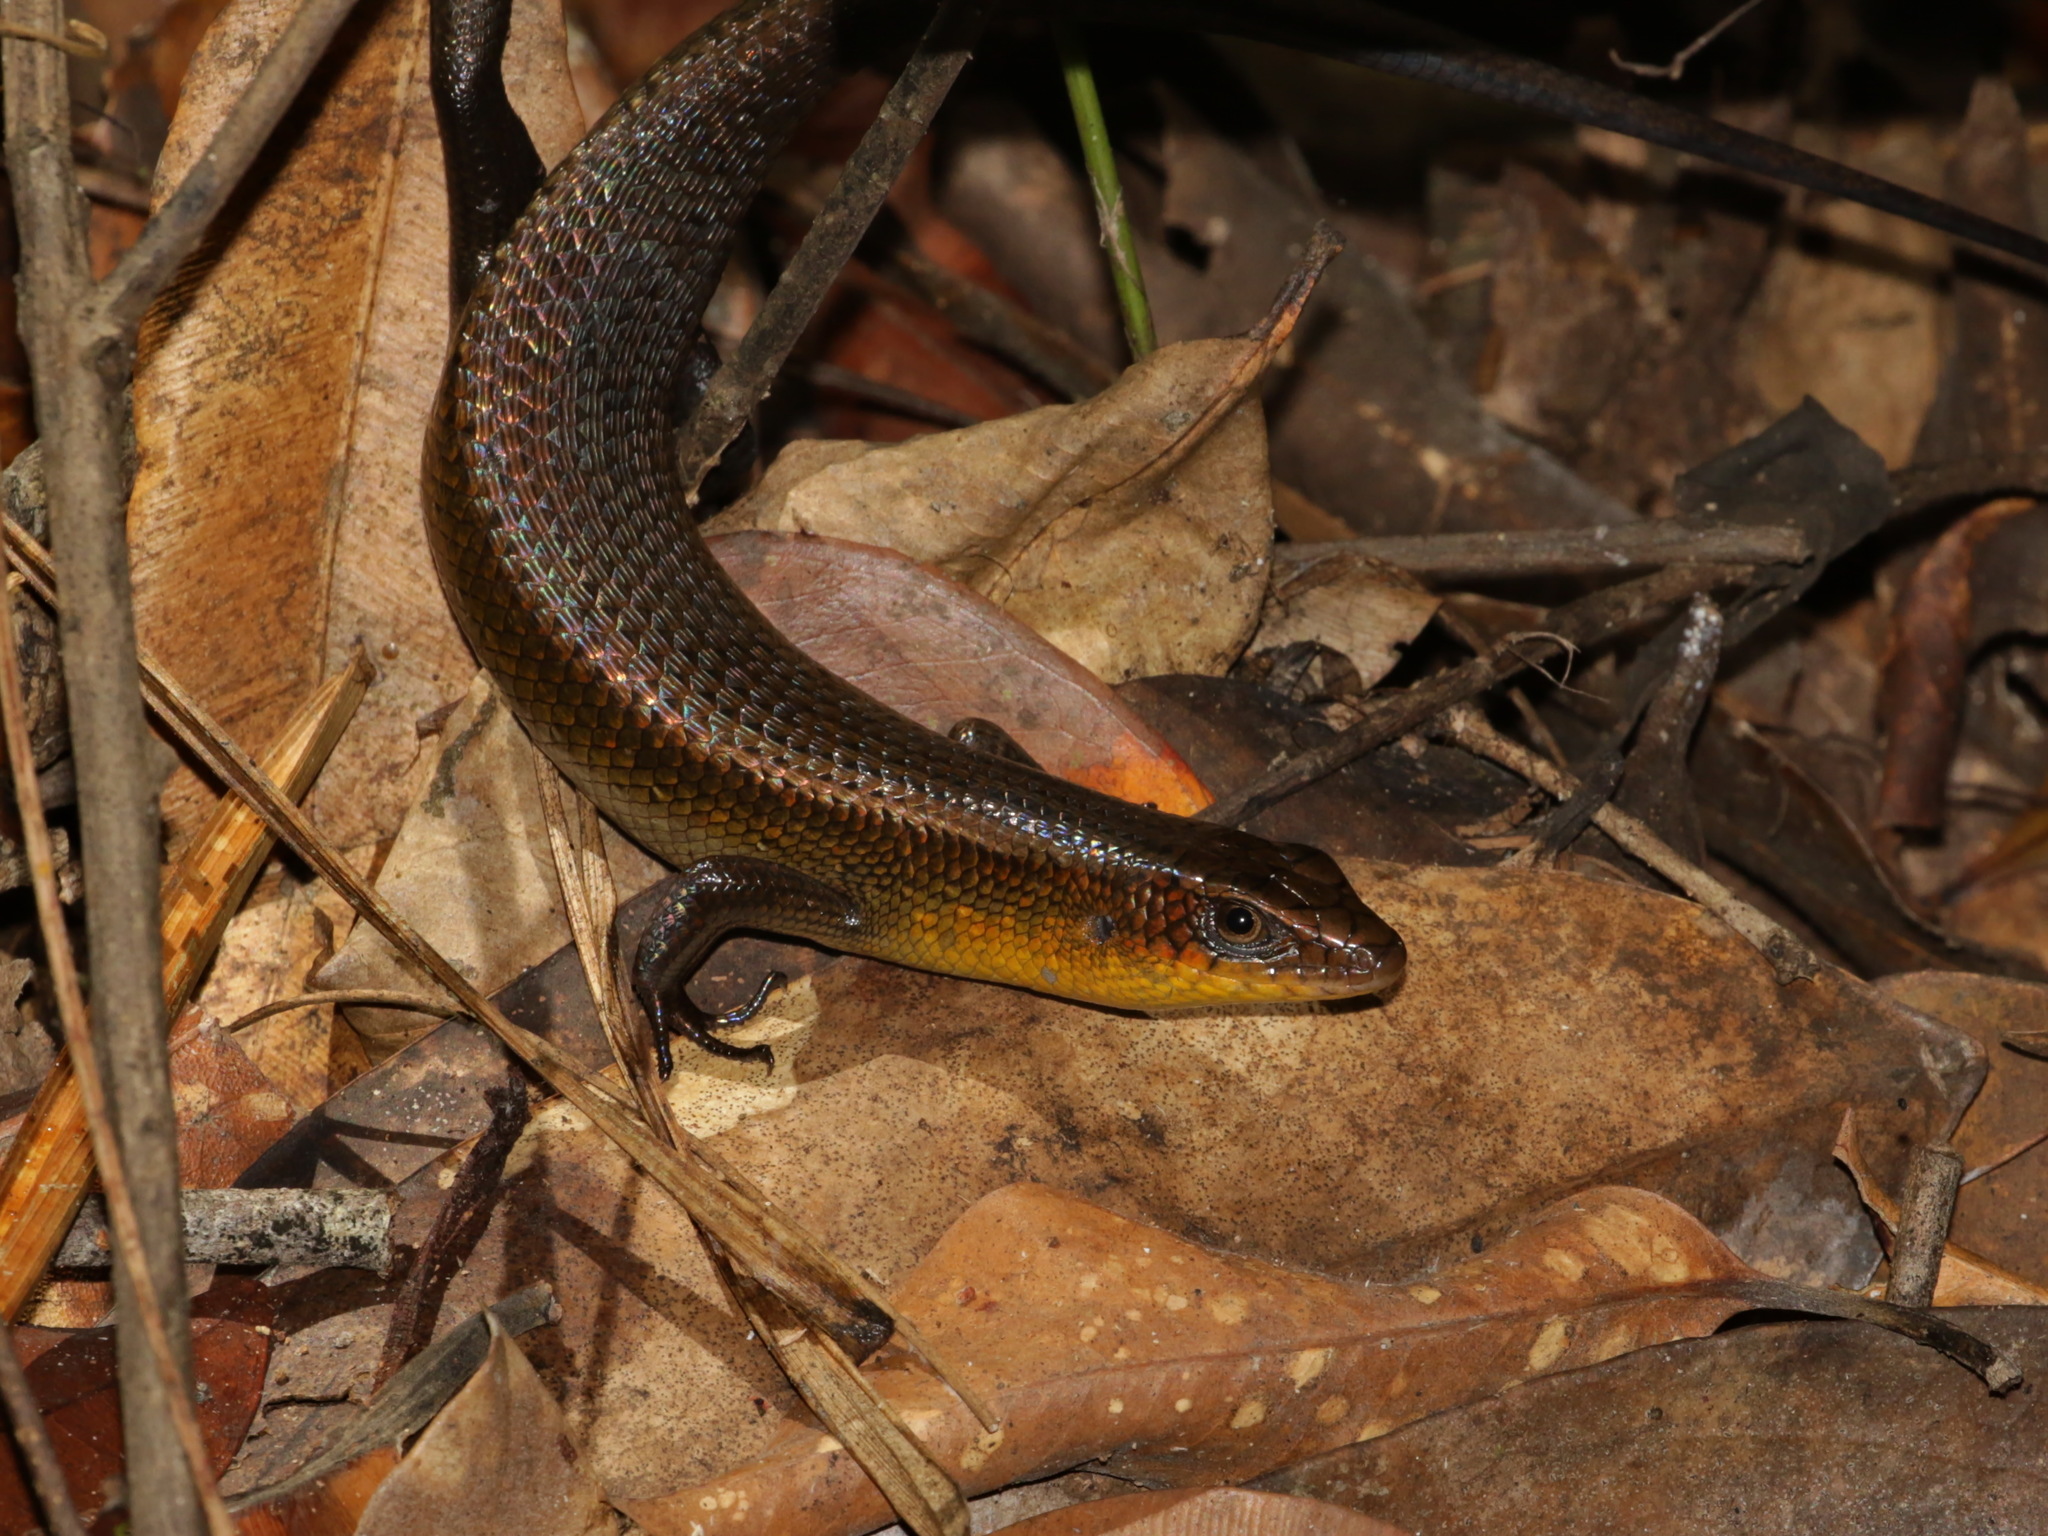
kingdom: Animalia
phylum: Chordata
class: Squamata
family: Scincidae
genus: Eutropis
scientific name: Eutropis multifasciata
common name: Common mabuya
